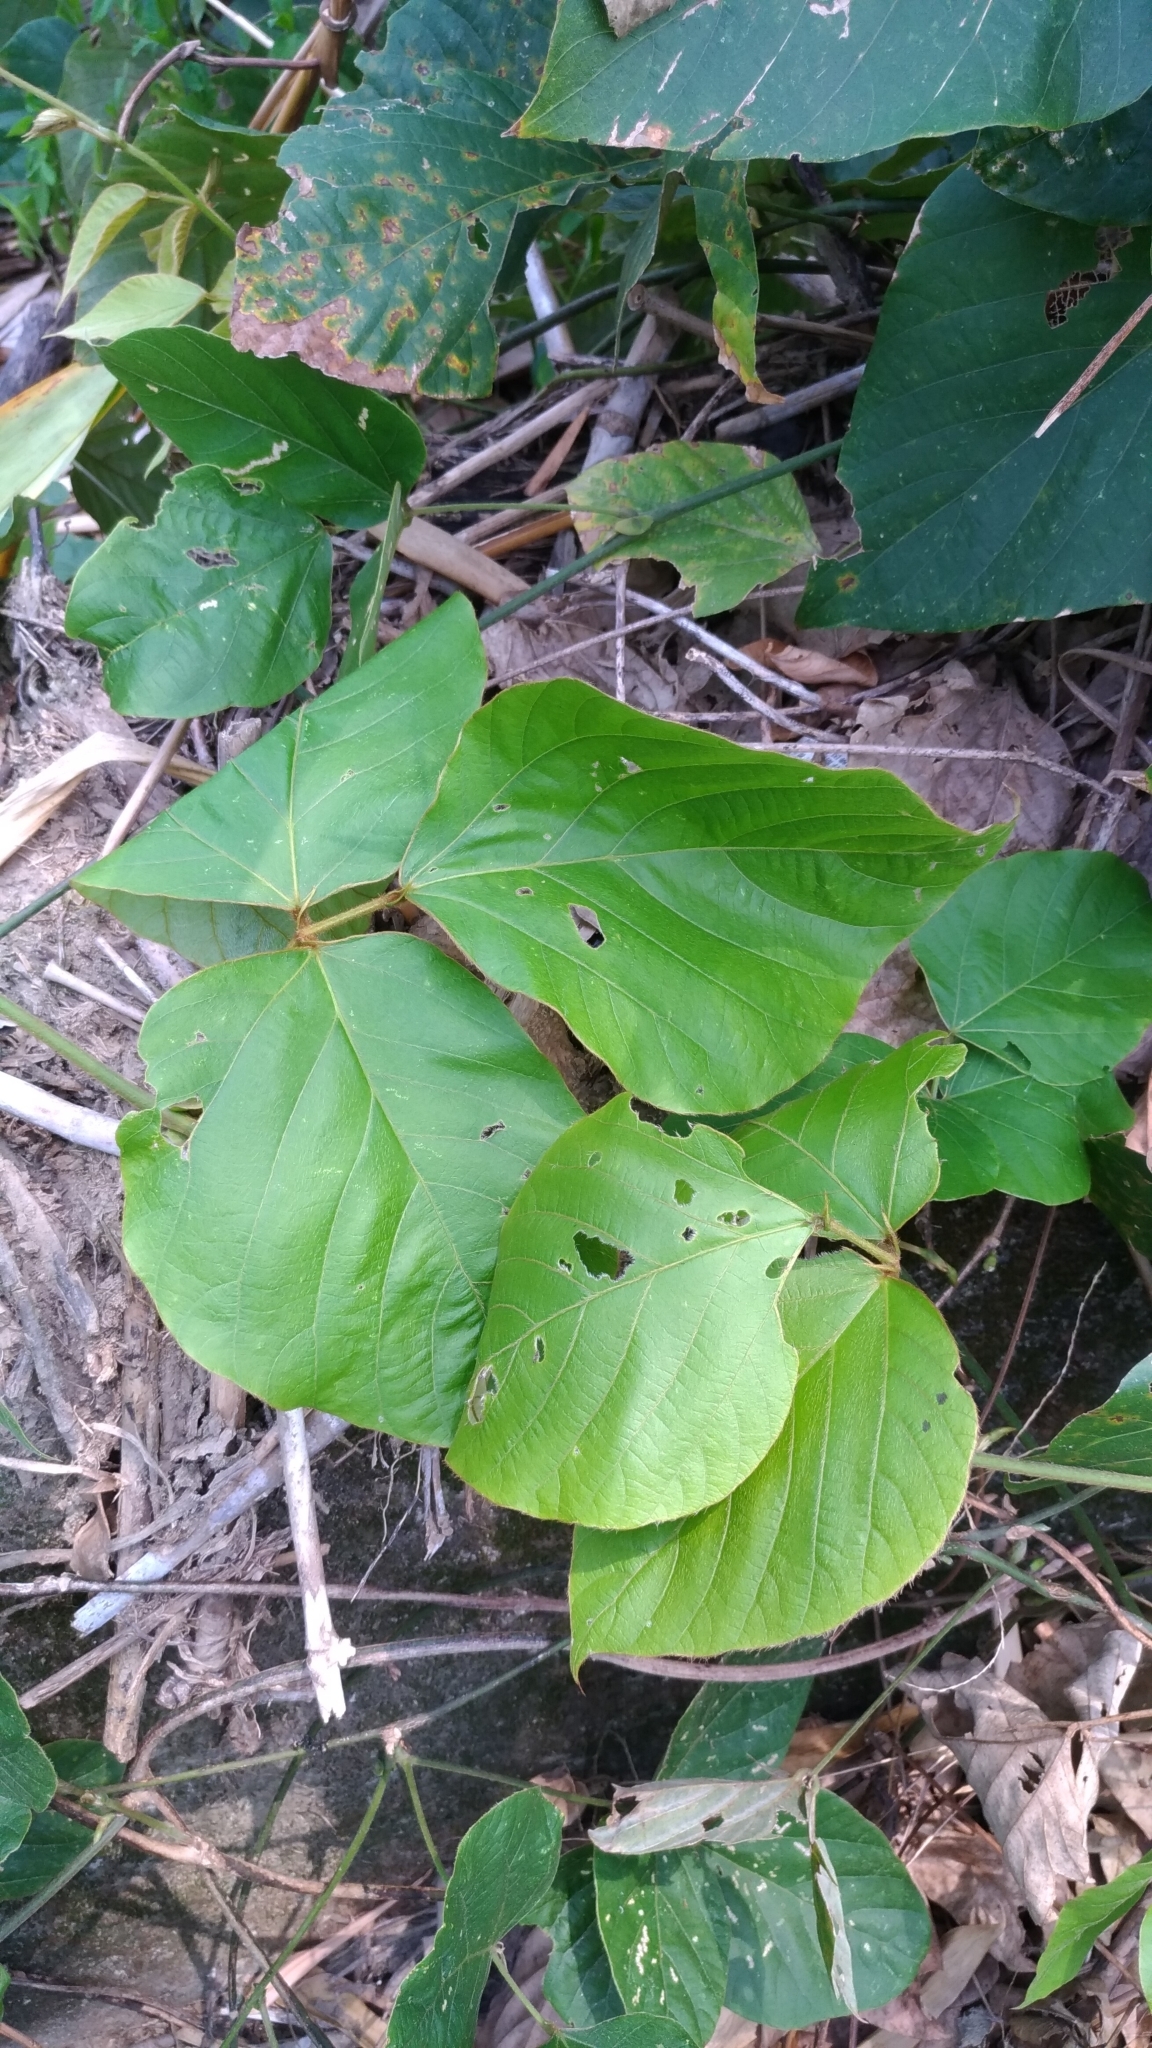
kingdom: Plantae
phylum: Tracheophyta
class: Magnoliopsida
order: Fabales
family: Fabaceae
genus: Pueraria
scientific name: Pueraria montana
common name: Kudzu
